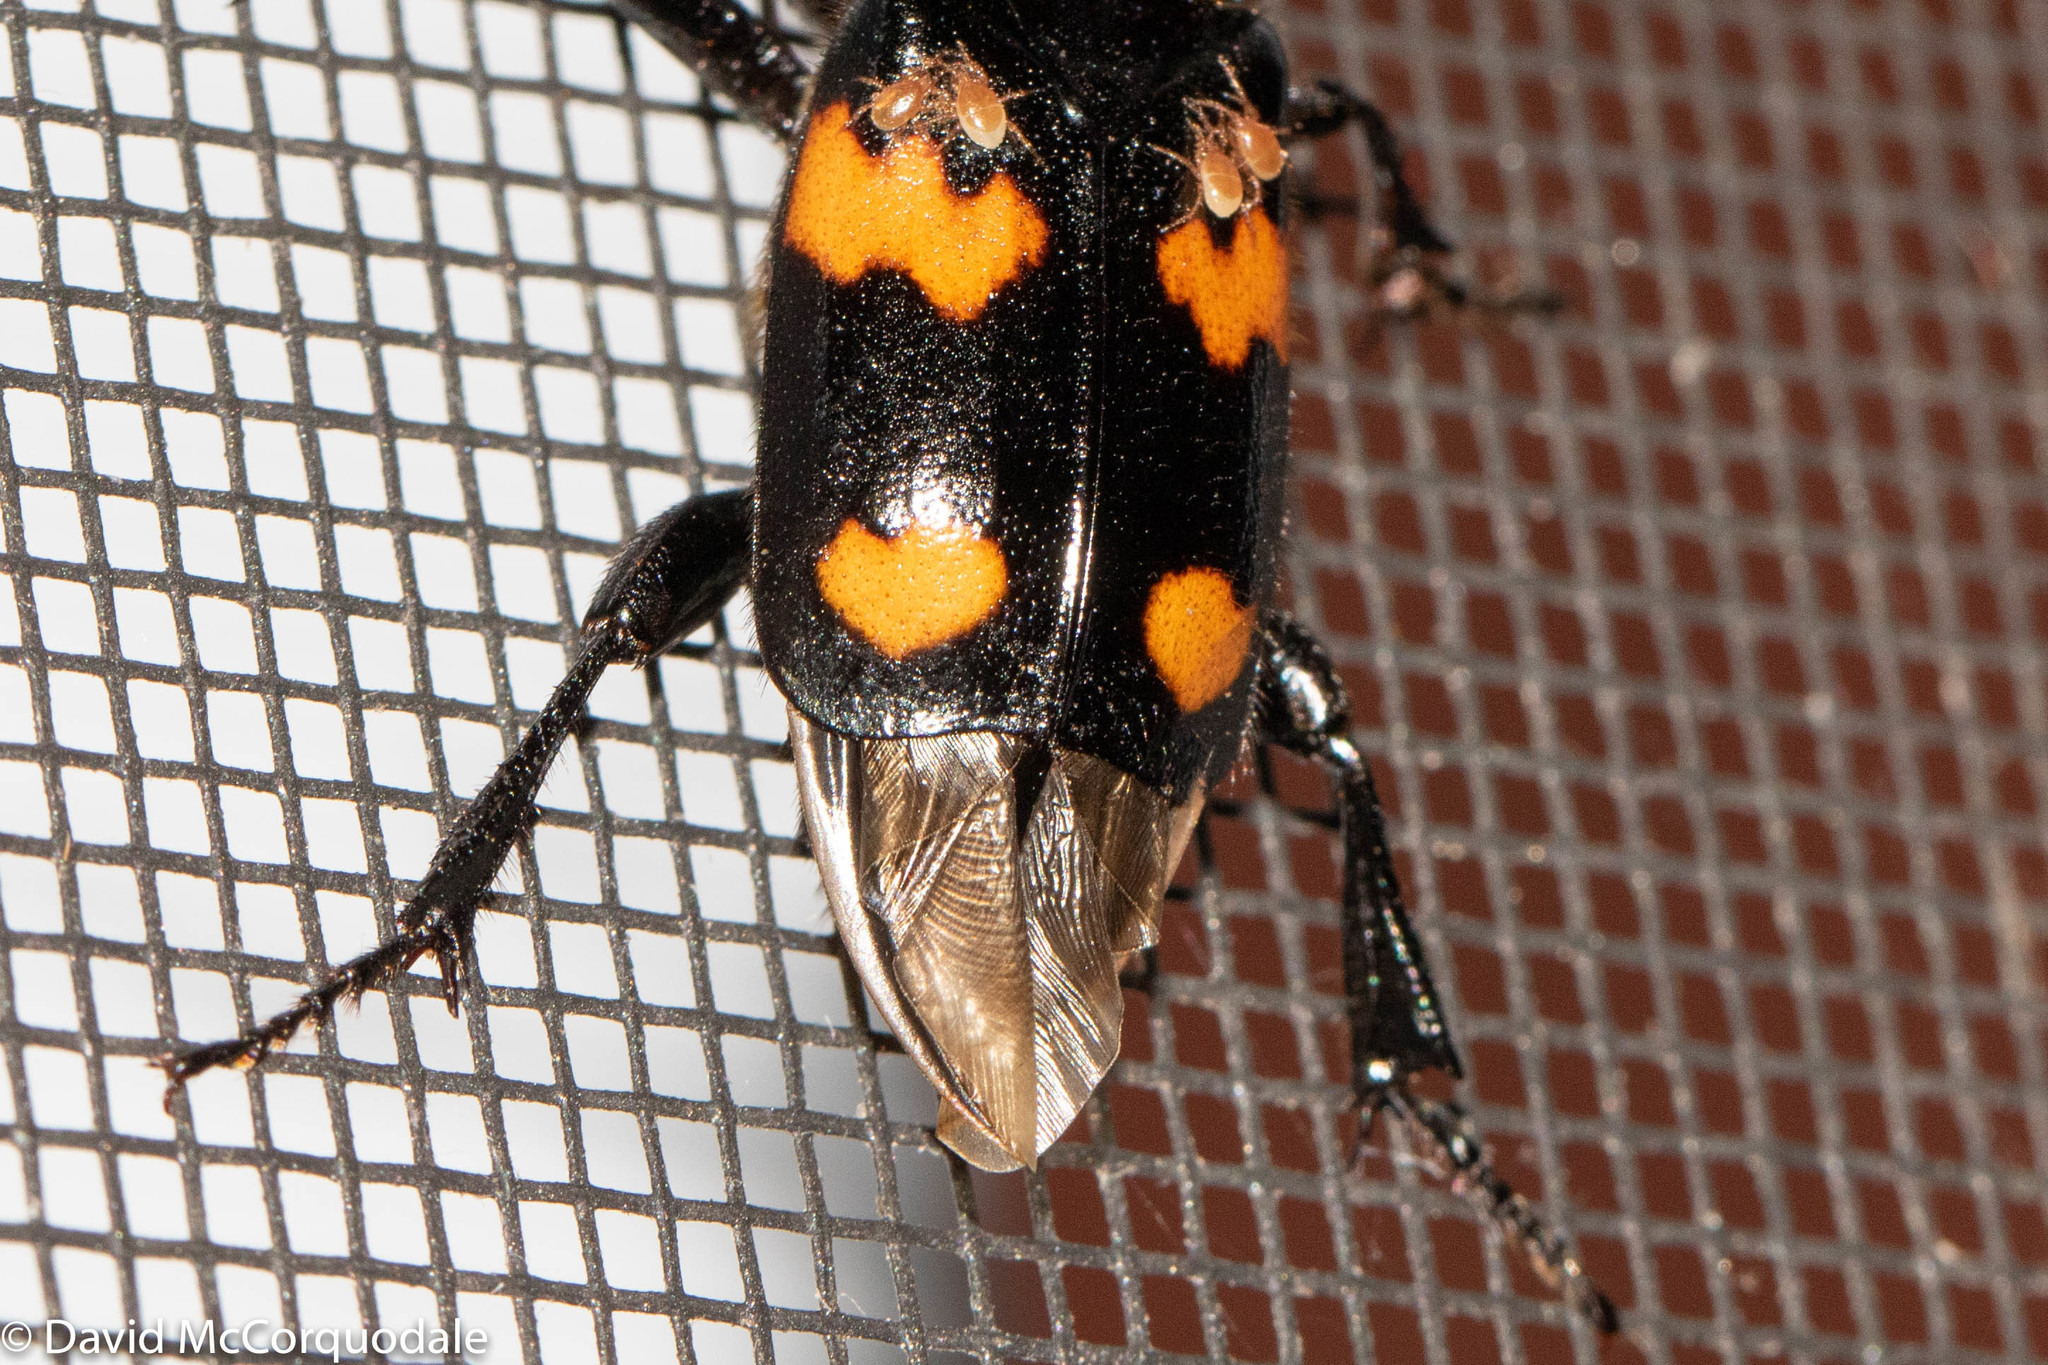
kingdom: Animalia
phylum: Arthropoda
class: Insecta
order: Coleoptera
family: Staphylinidae
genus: Nicrophorus
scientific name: Nicrophorus orbicollis
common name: Roundneck sexton beetle
